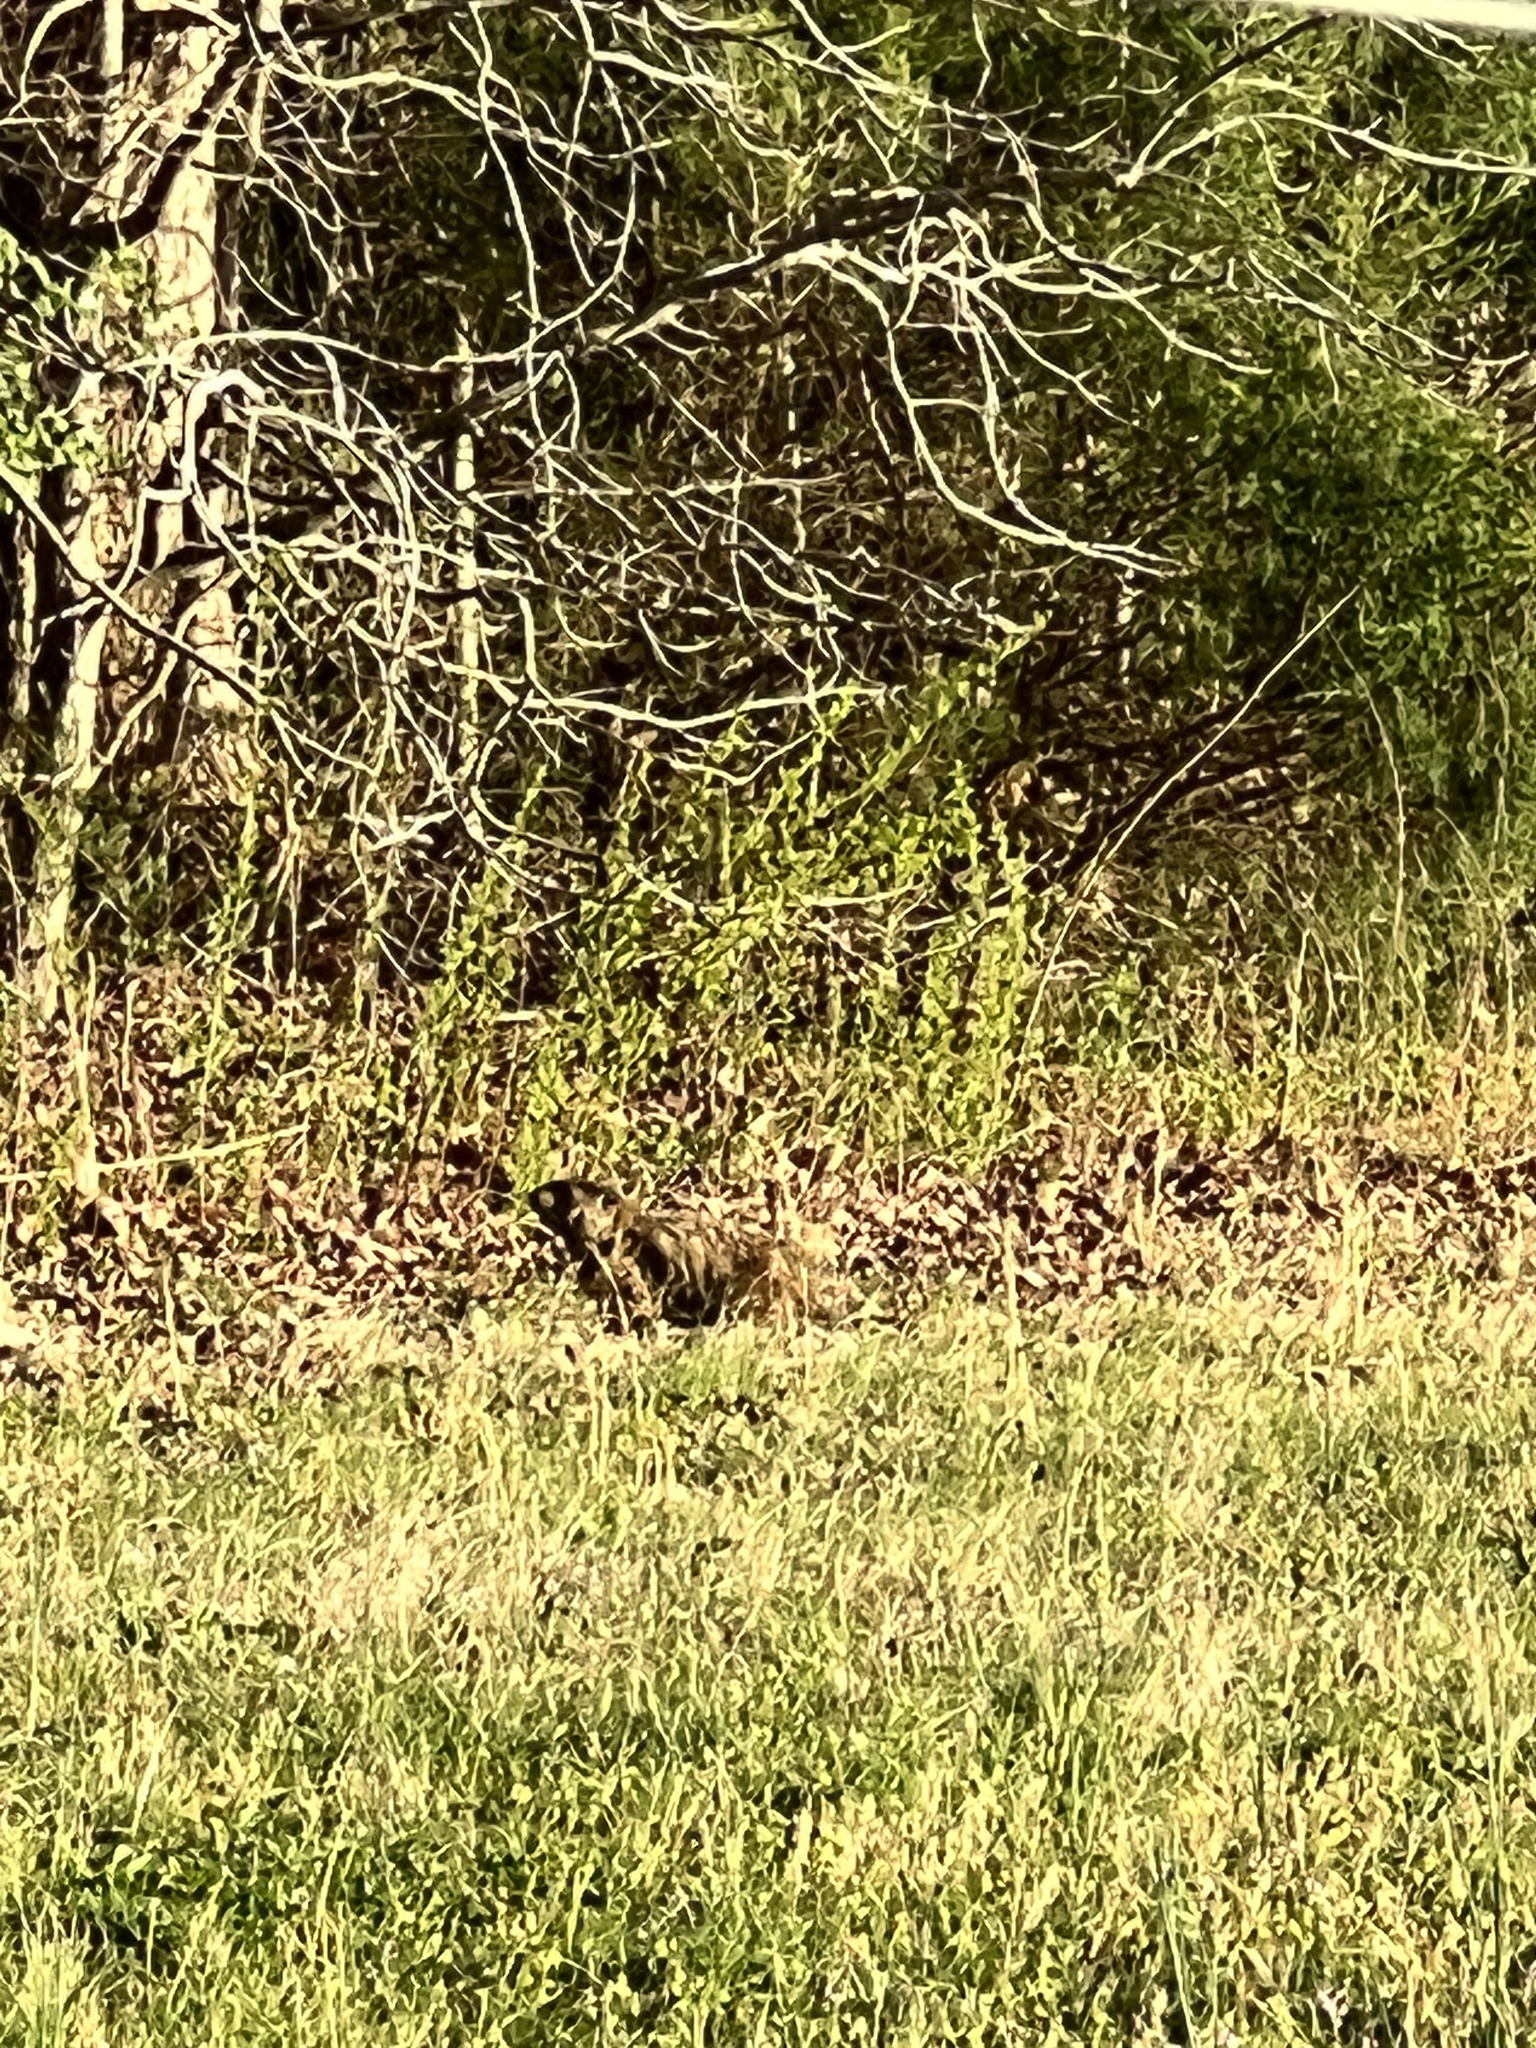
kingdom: Animalia
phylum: Chordata
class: Mammalia
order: Rodentia
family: Sciuridae
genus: Marmota
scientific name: Marmota monax
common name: Groundhog
